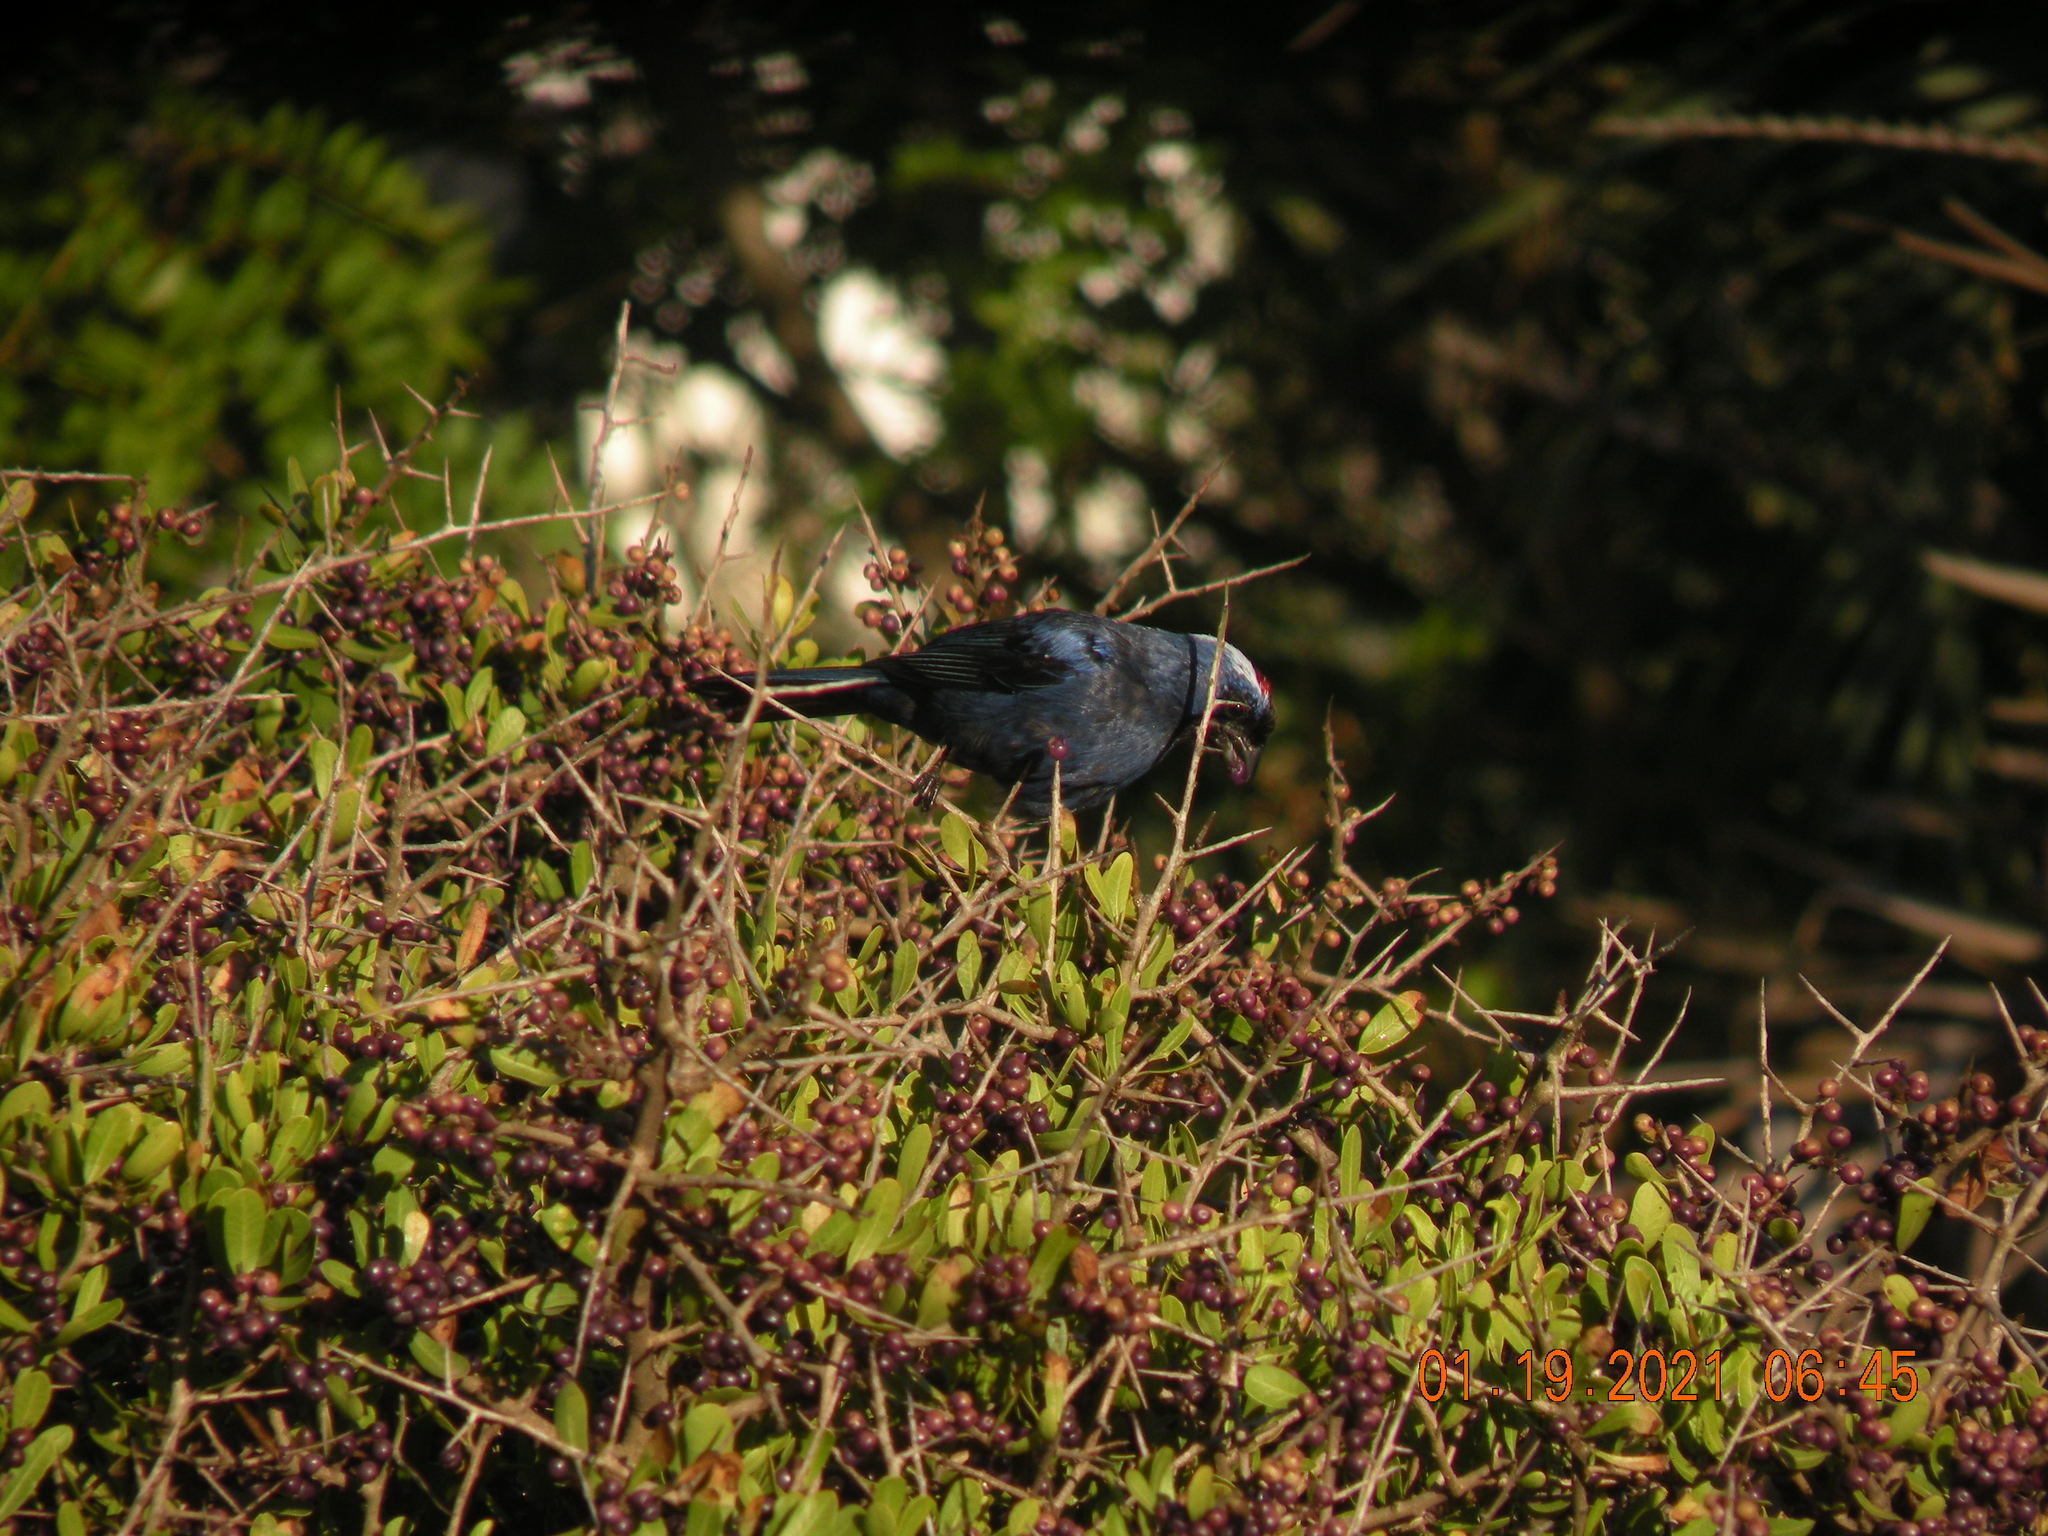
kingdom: Animalia
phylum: Chordata
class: Aves
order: Passeriformes
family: Thraupidae
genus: Stephanophorus
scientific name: Stephanophorus diadematus
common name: Diademed tanager
